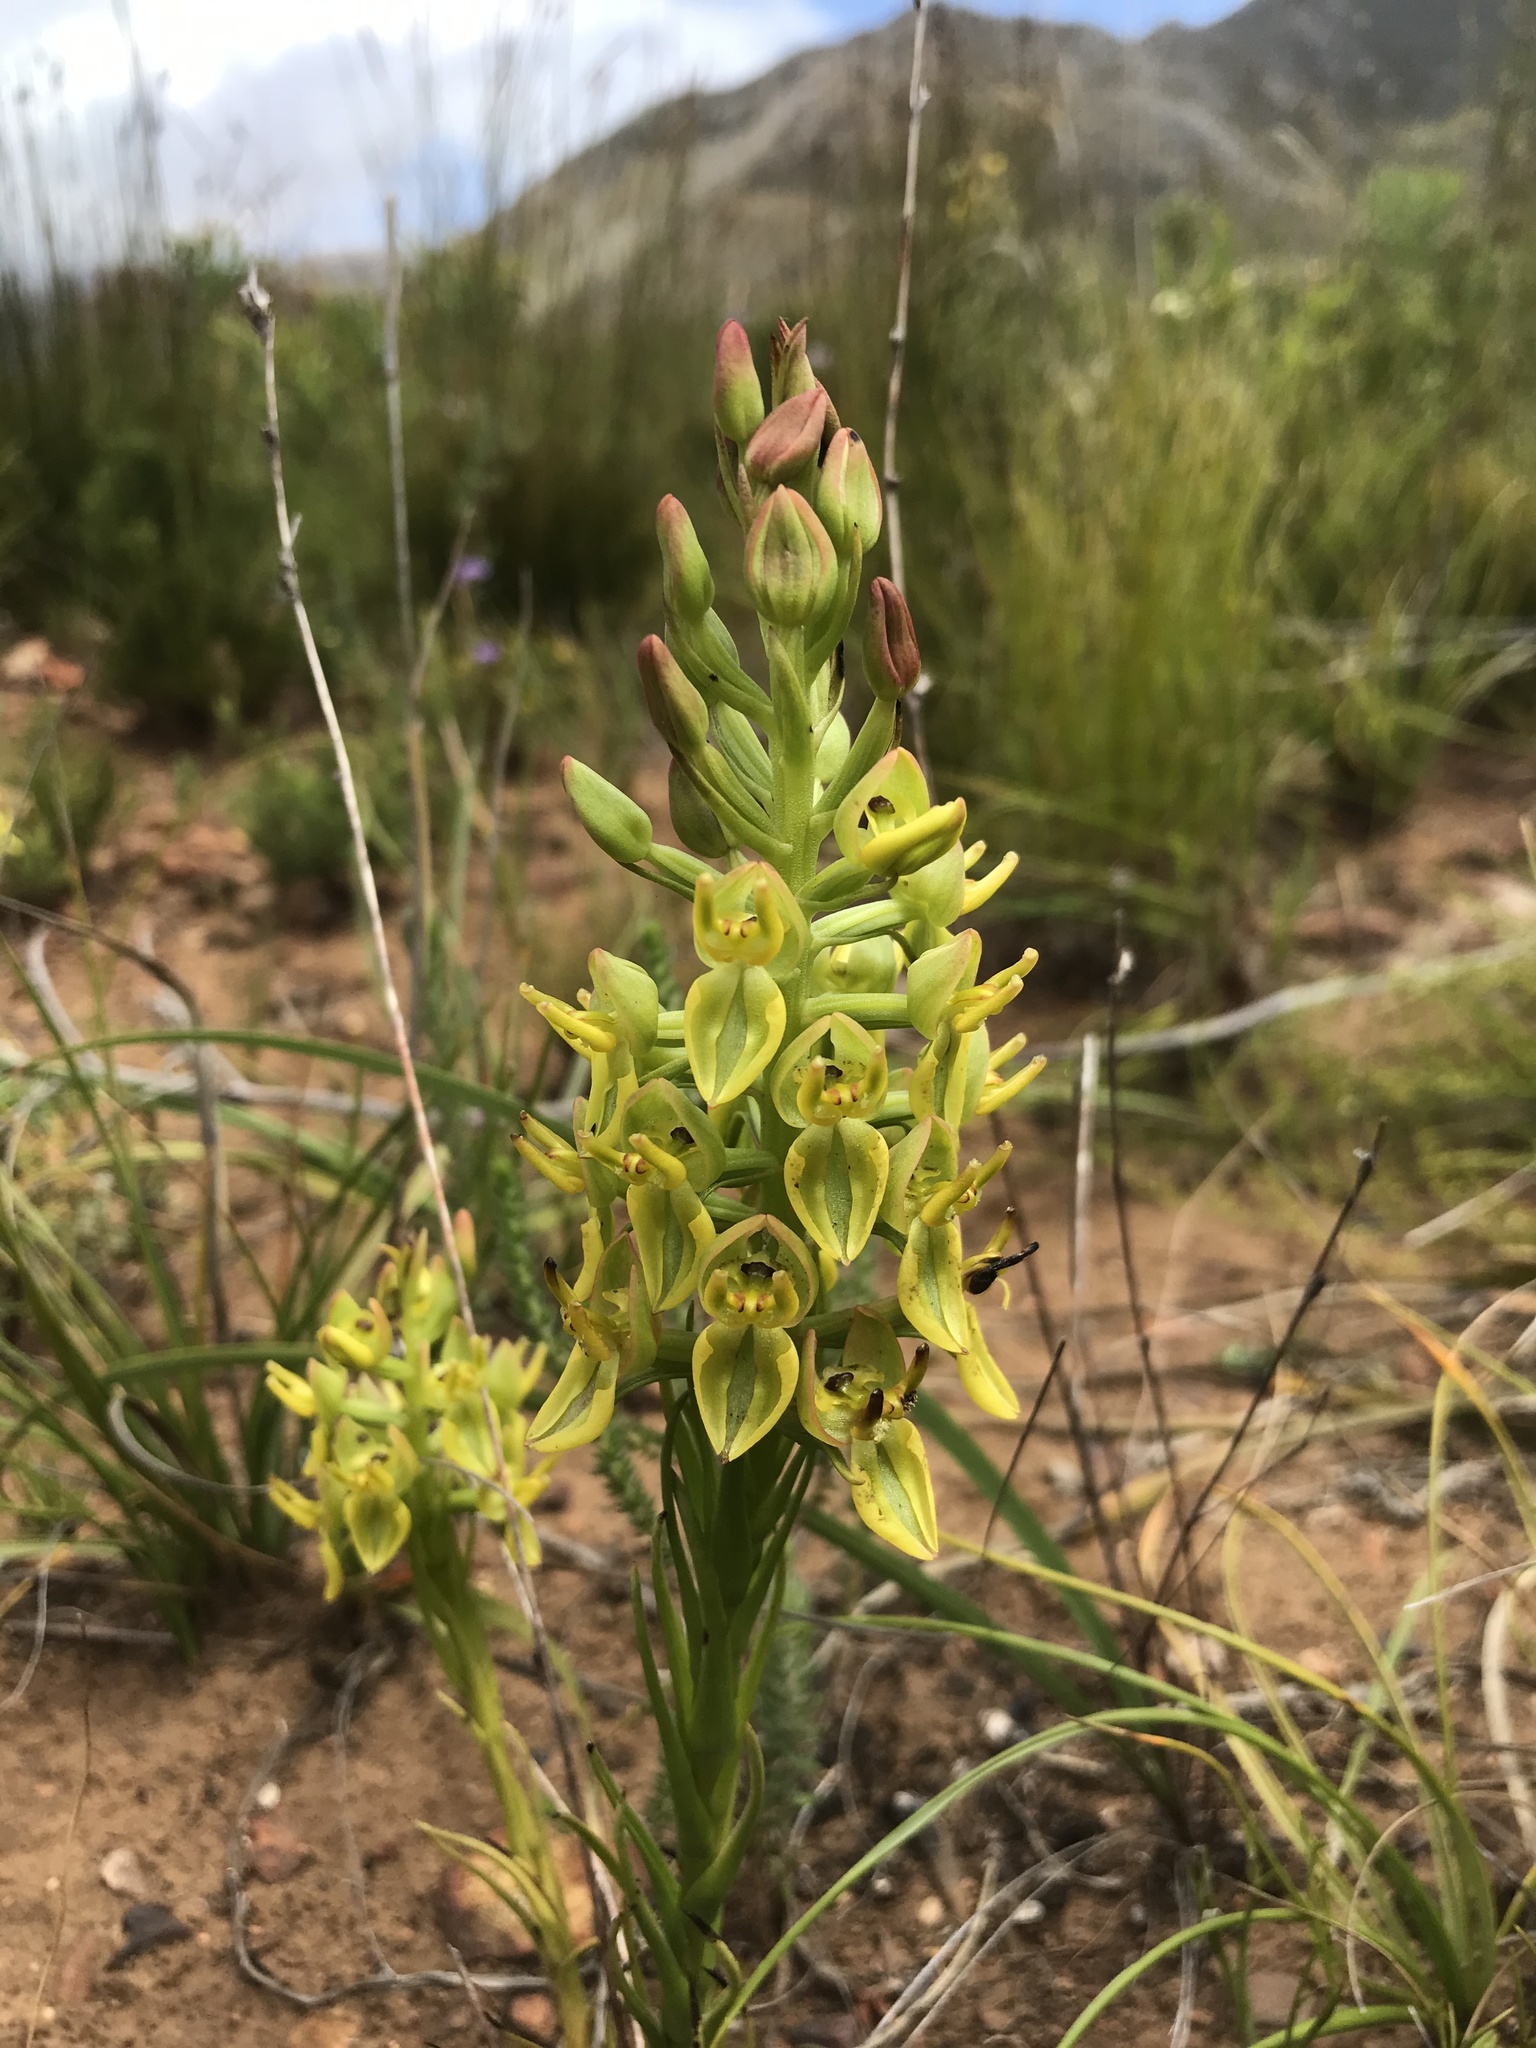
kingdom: Plantae
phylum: Tracheophyta
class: Liliopsida
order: Asparagales
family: Orchidaceae
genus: Ceratandra
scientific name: Ceratandra atrata
